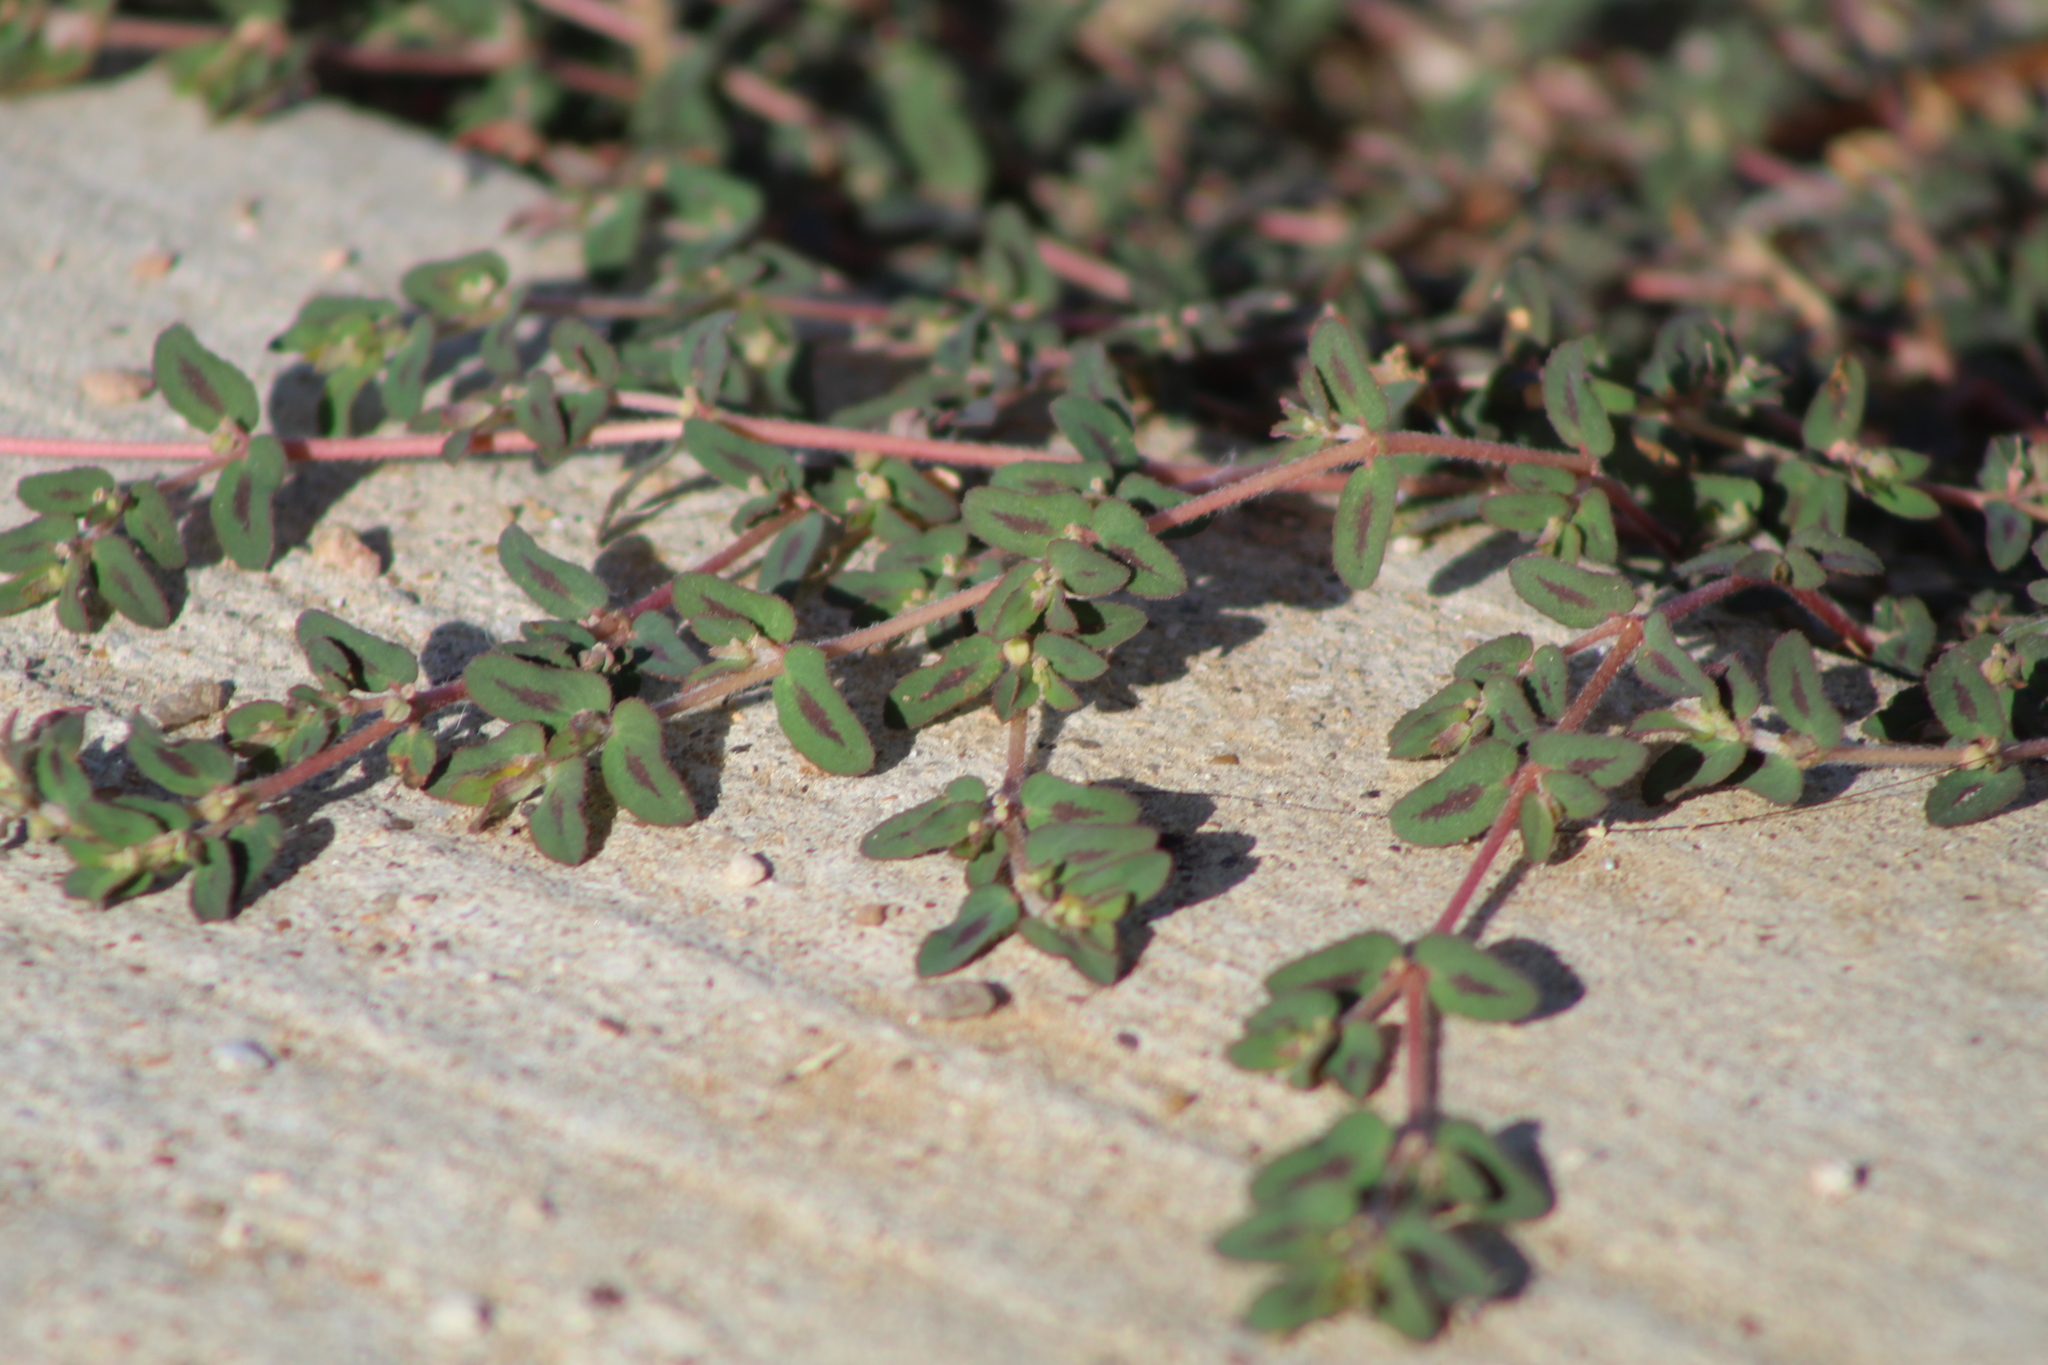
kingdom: Plantae
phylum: Tracheophyta
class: Magnoliopsida
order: Malpighiales
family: Euphorbiaceae
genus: Euphorbia
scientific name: Euphorbia maculata
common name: Spotted spurge
